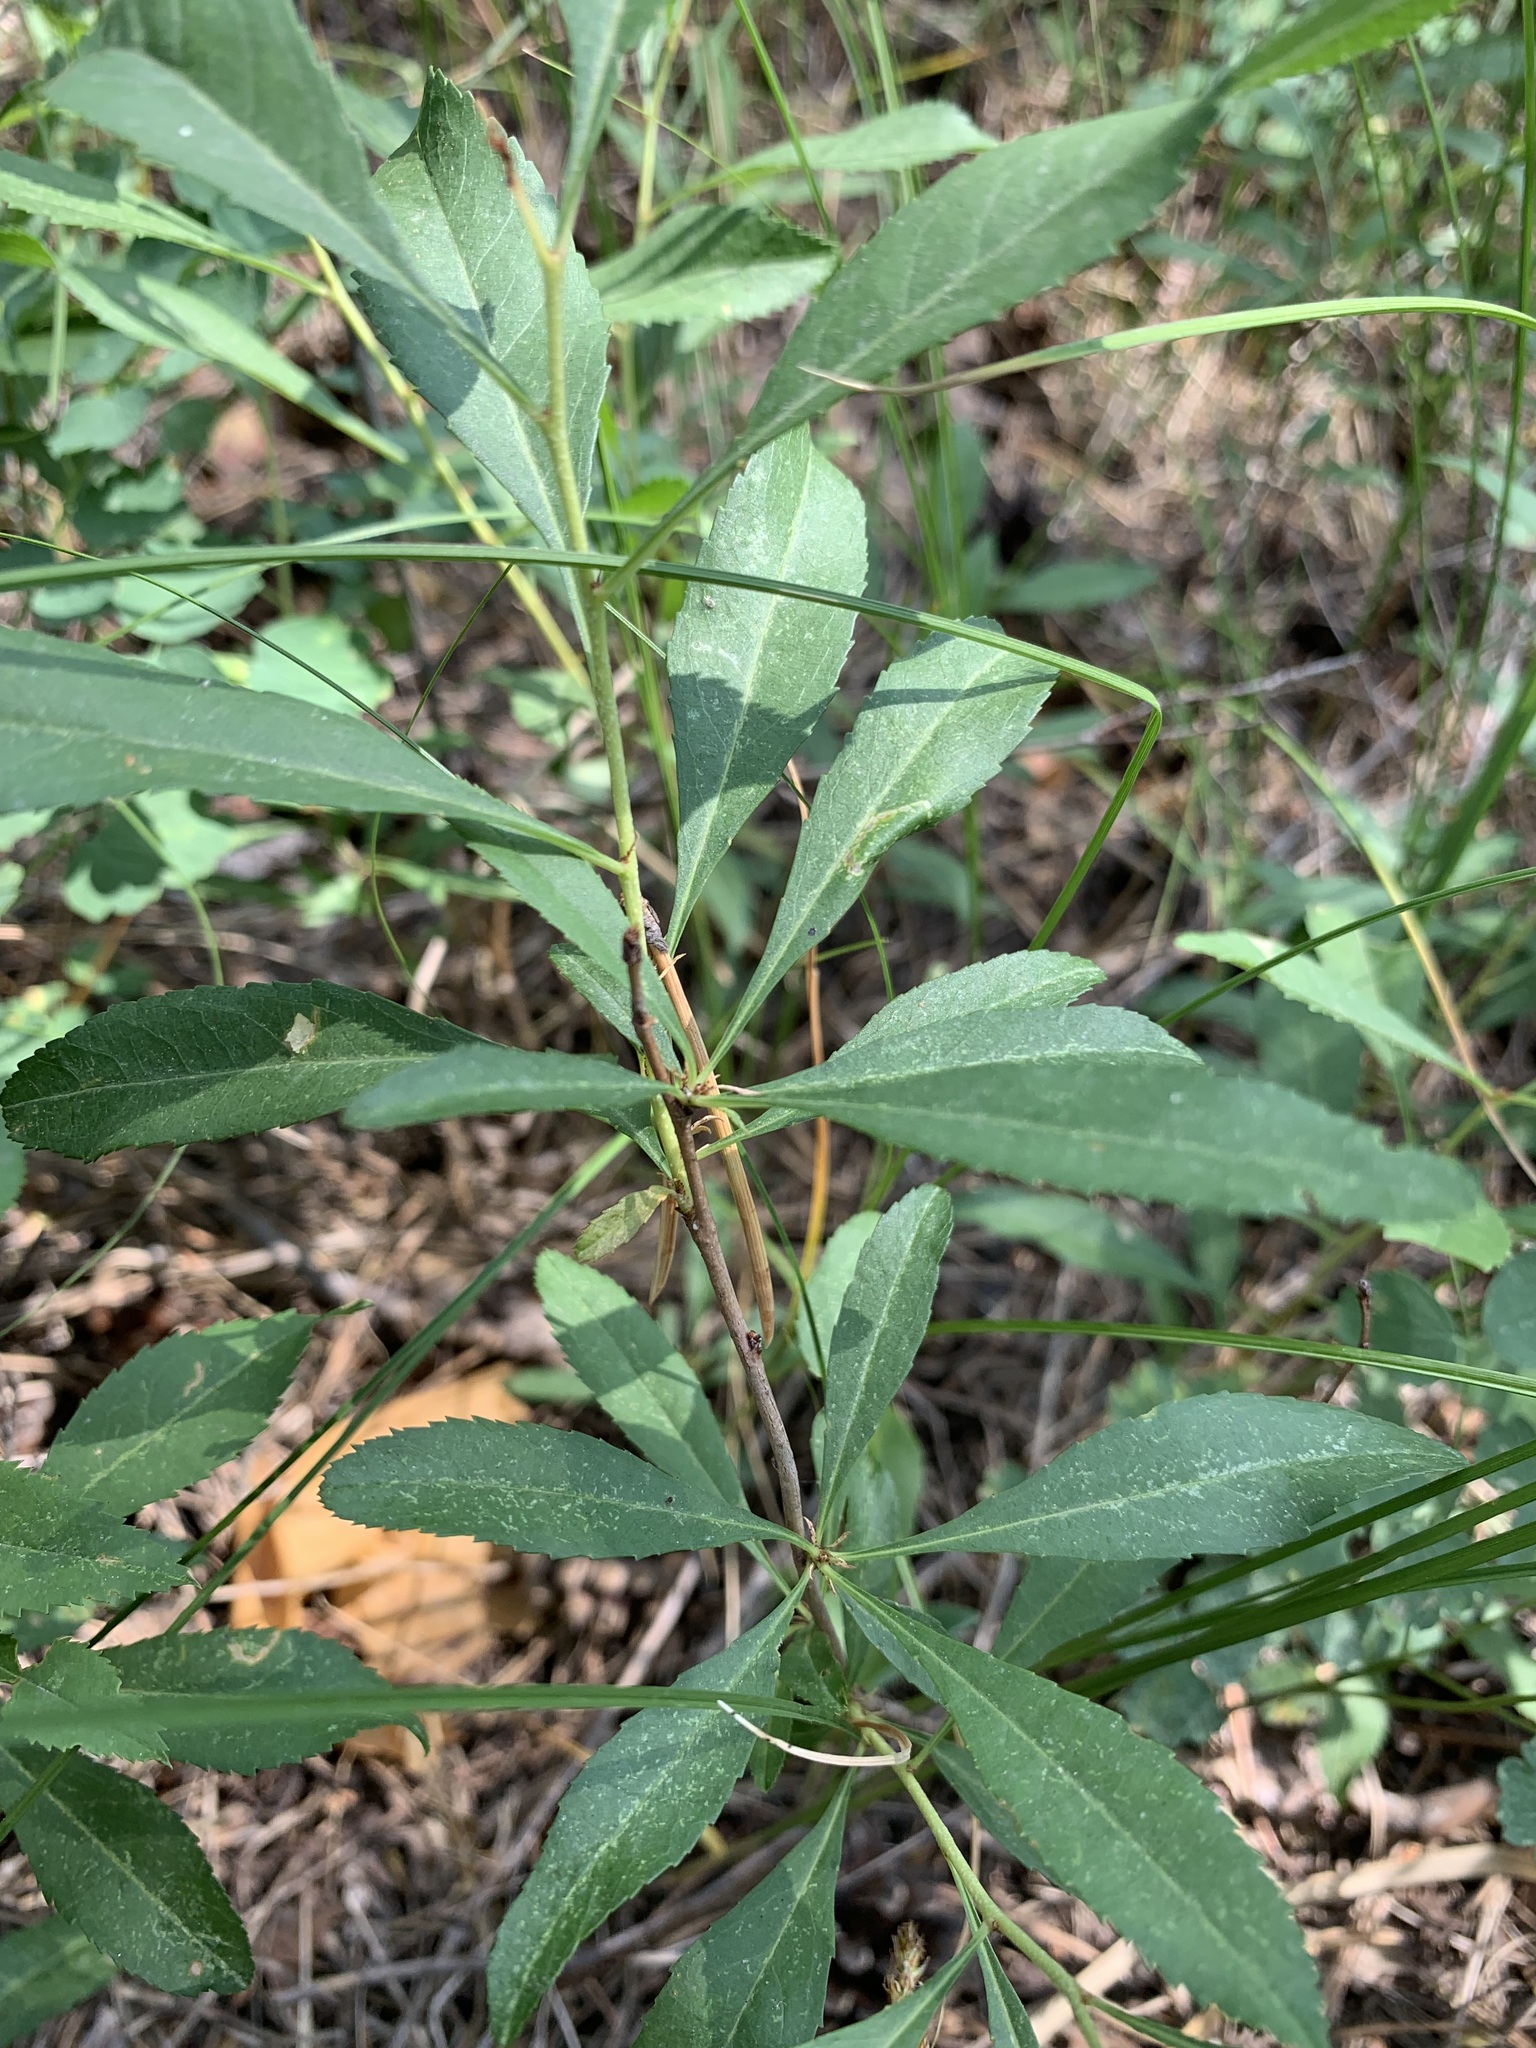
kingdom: Plantae
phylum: Tracheophyta
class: Magnoliopsida
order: Rosales
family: Rosaceae
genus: Prunus
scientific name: Prunus tenella
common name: Dwarf russian almond
